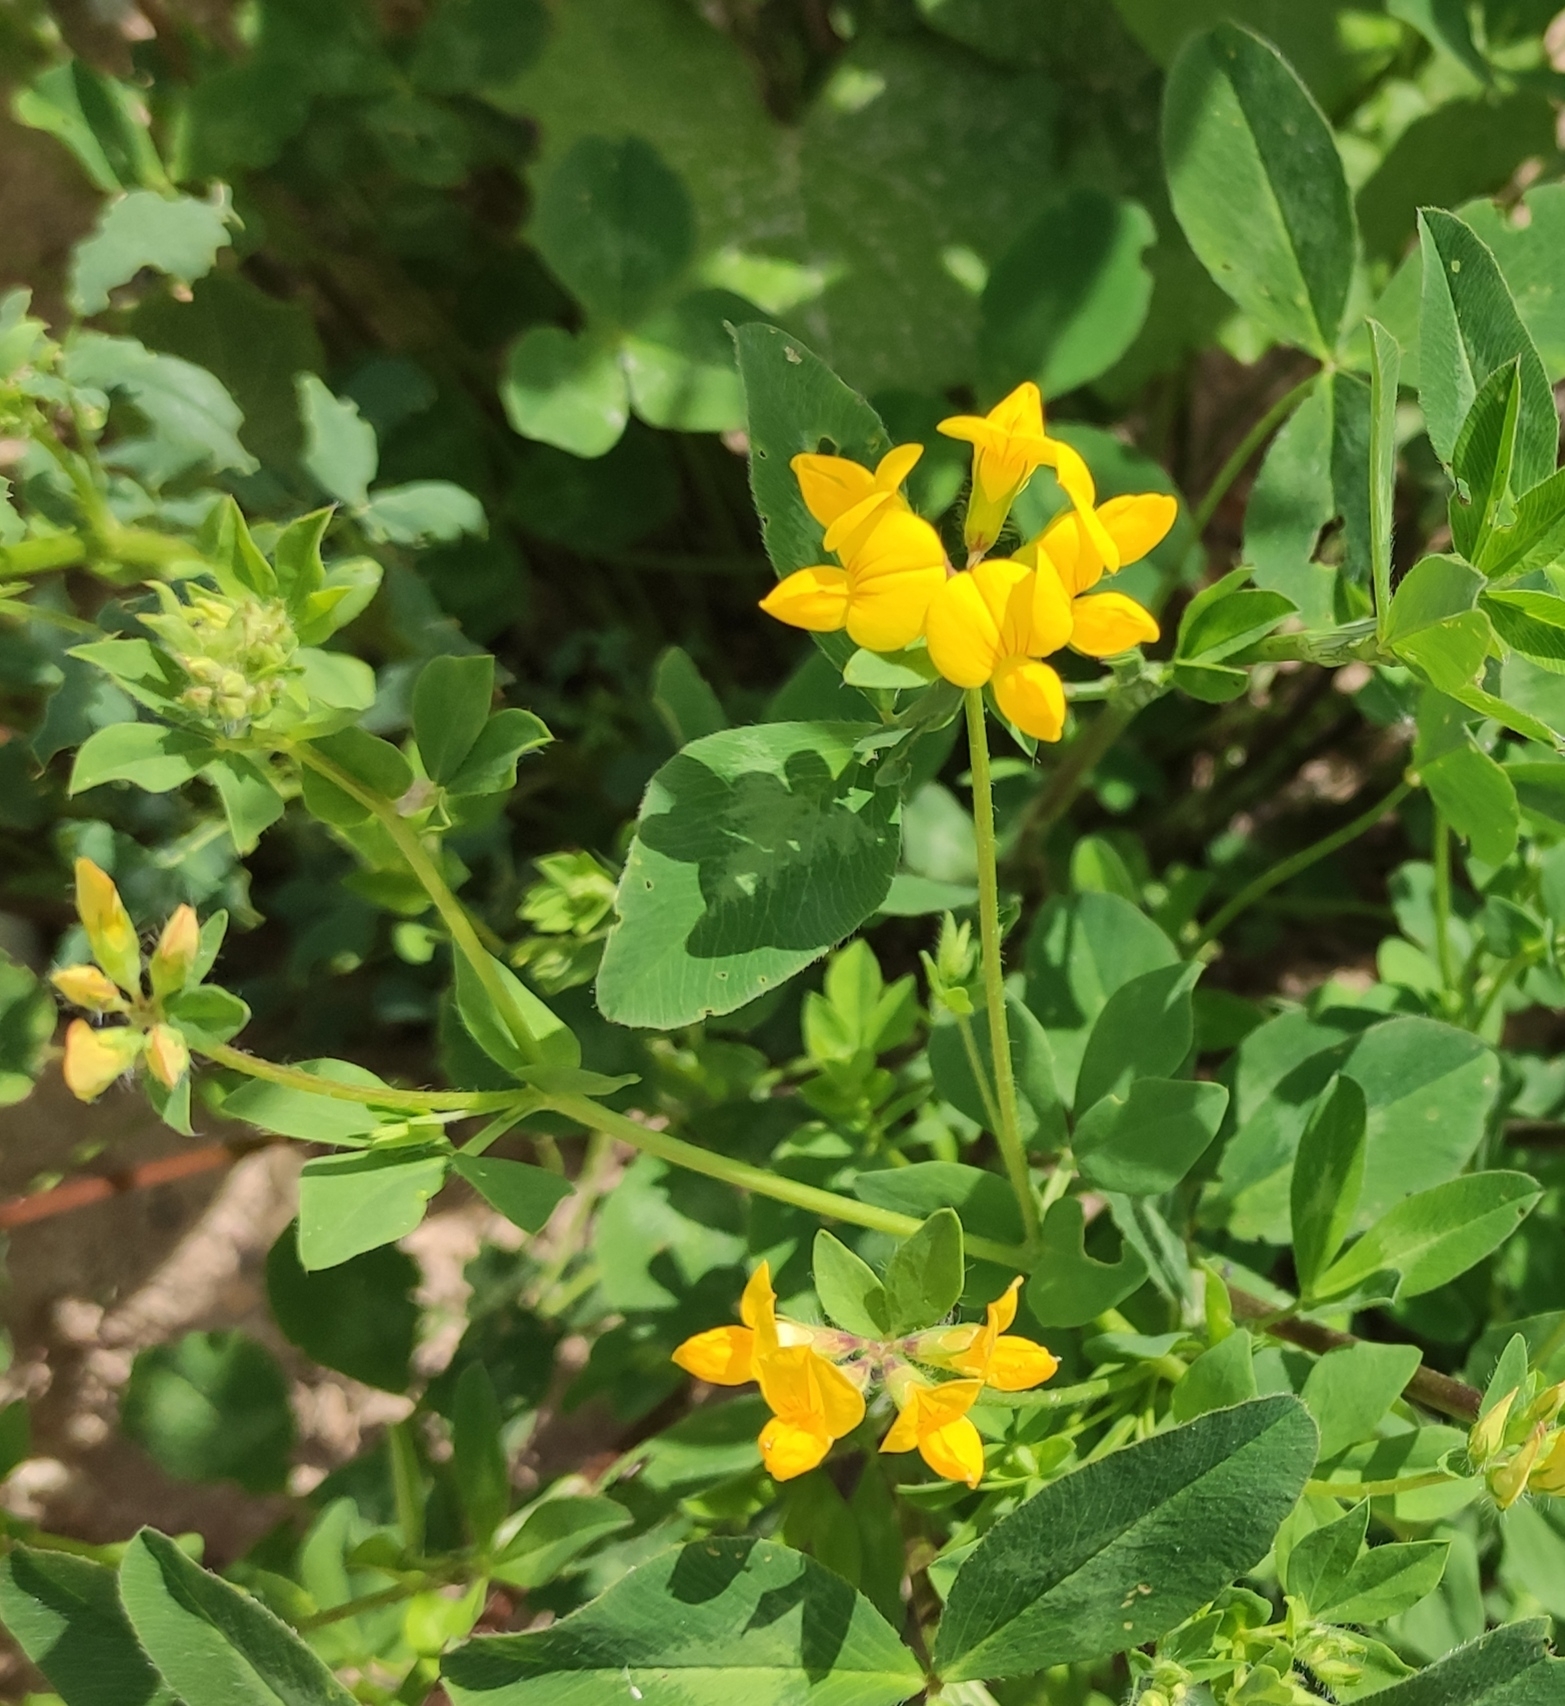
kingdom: Plantae
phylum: Tracheophyta
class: Magnoliopsida
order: Fabales
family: Fabaceae
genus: Lotus
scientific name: Lotus corniculatus
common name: Common bird's-foot-trefoil
